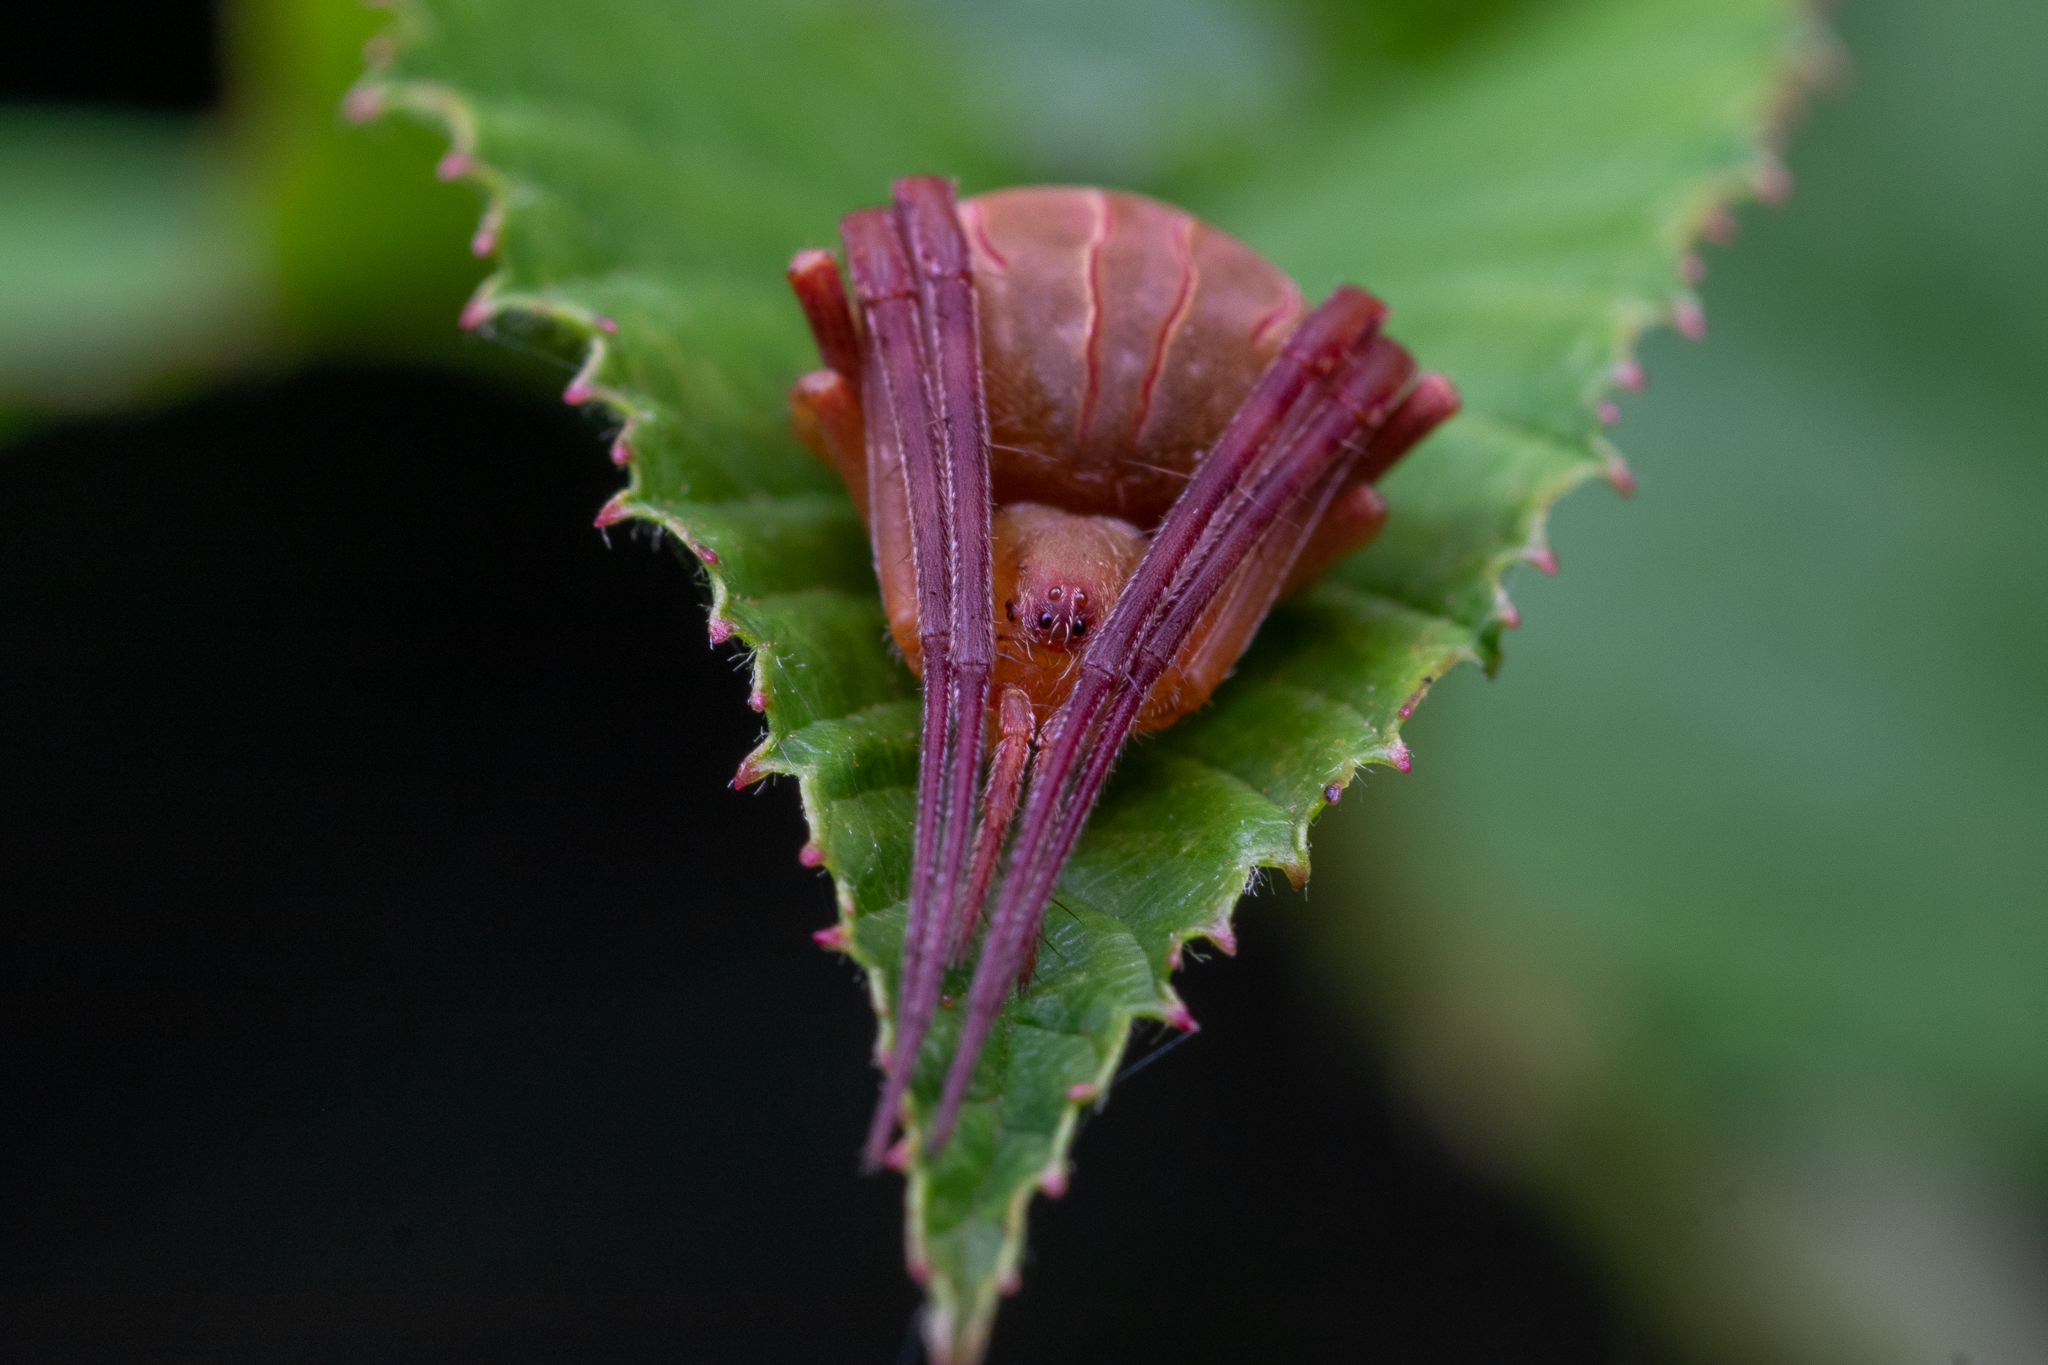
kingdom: Animalia
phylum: Arthropoda
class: Arachnida
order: Araneae
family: Araneidae
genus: Acacesia
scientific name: Acacesia hamata
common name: Orb weavers
